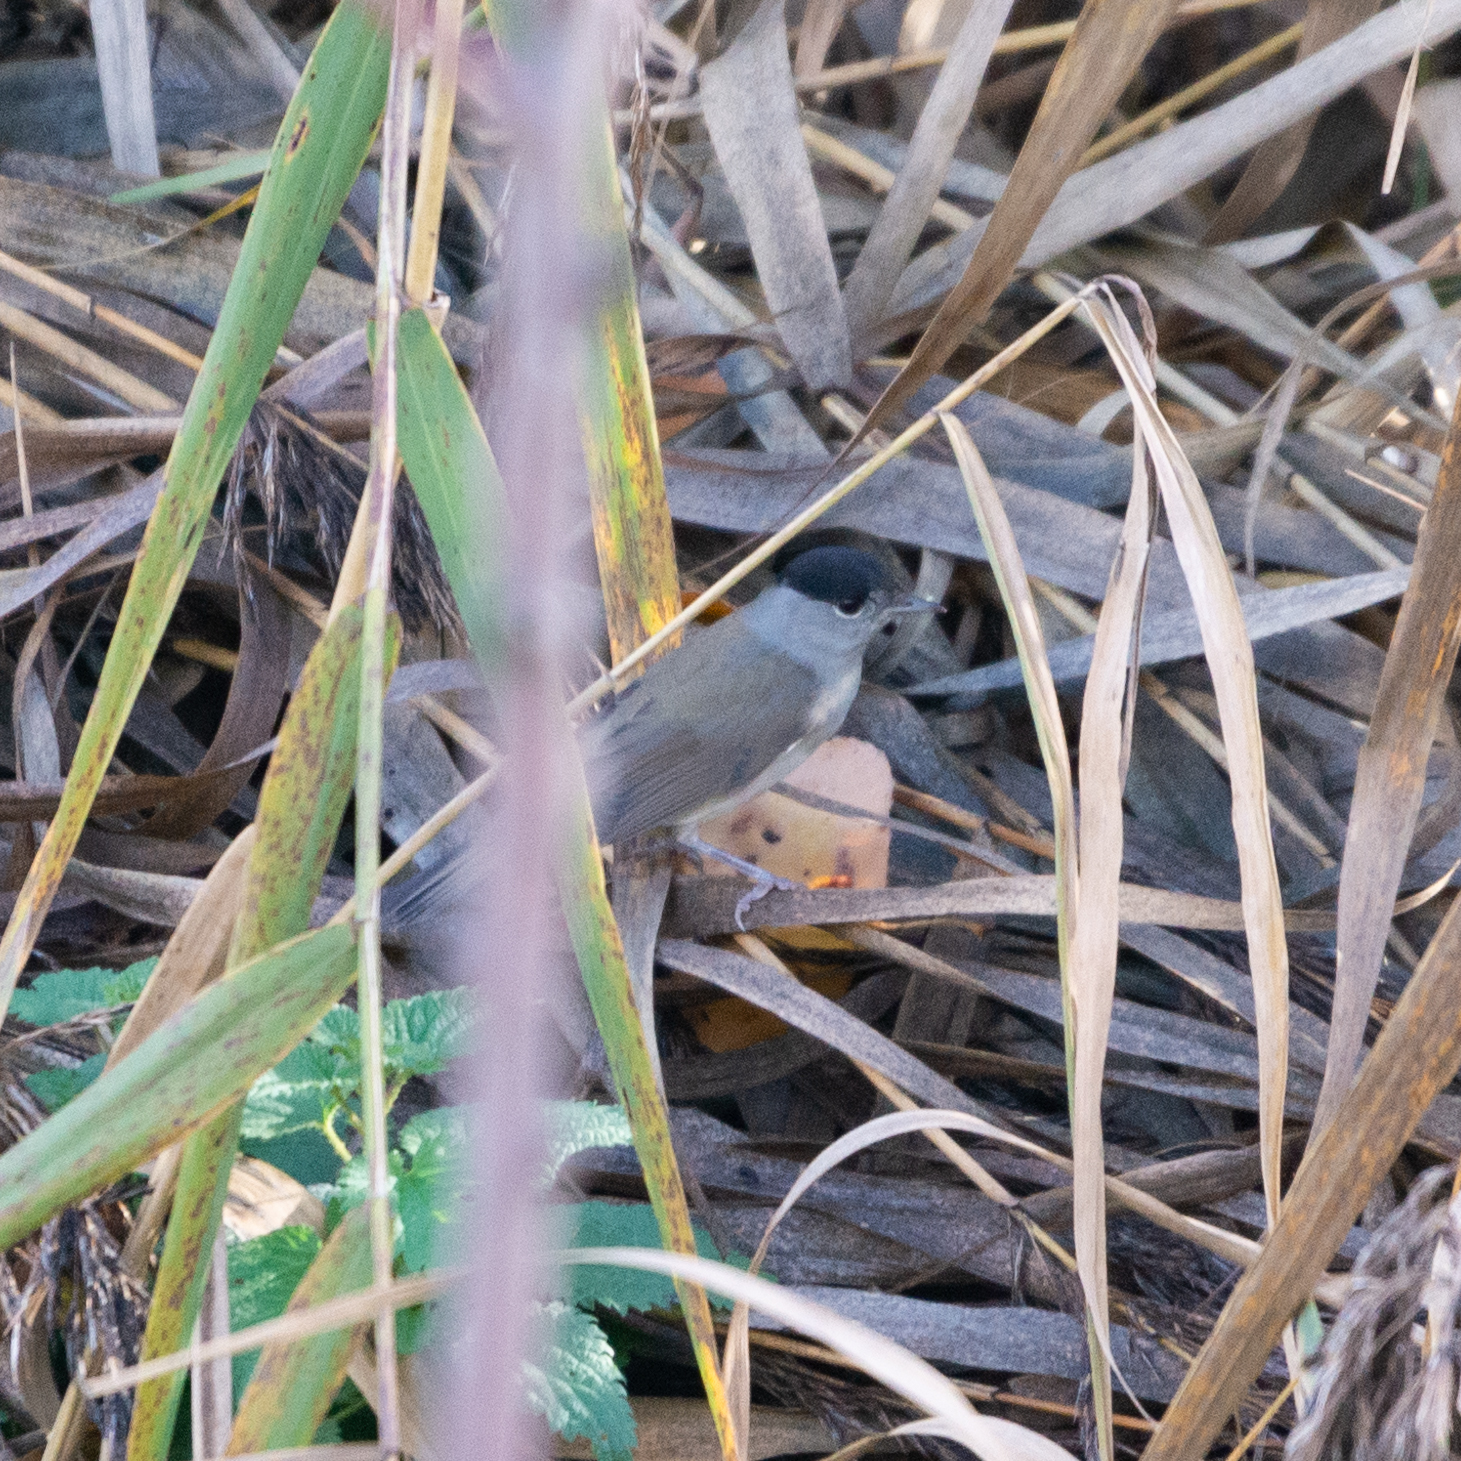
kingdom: Animalia
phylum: Chordata
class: Aves
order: Passeriformes
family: Sylviidae
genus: Sylvia
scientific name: Sylvia atricapilla
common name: Eurasian blackcap
